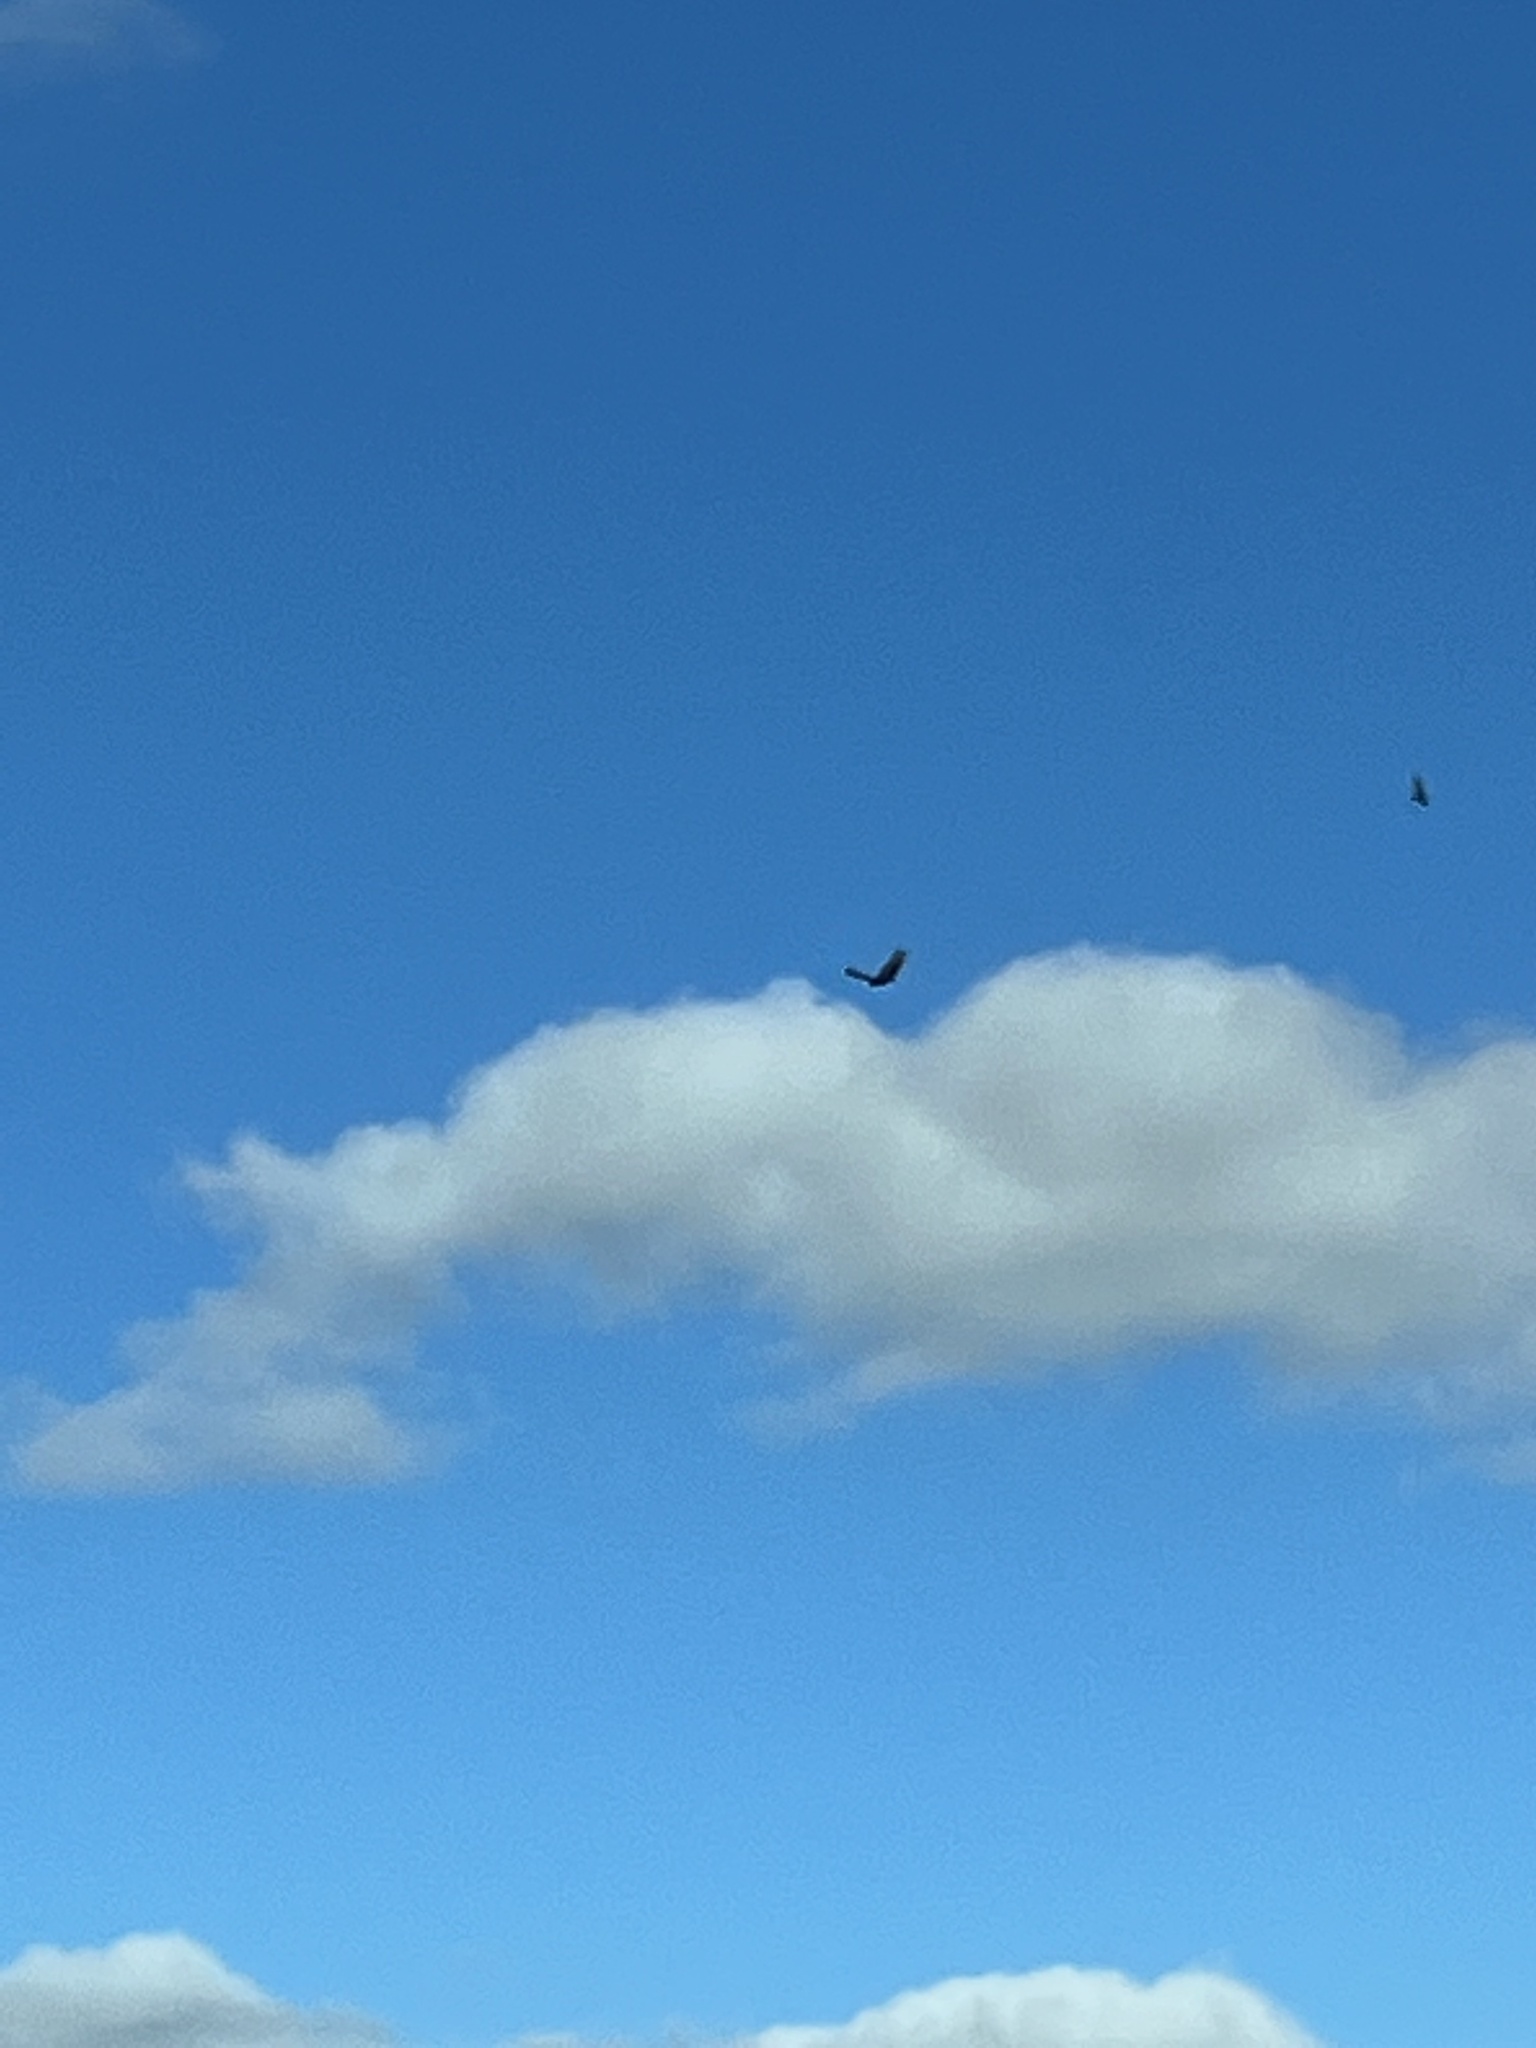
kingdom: Animalia
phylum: Chordata
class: Aves
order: Accipitriformes
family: Cathartidae
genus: Cathartes
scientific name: Cathartes aura
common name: Turkey vulture
